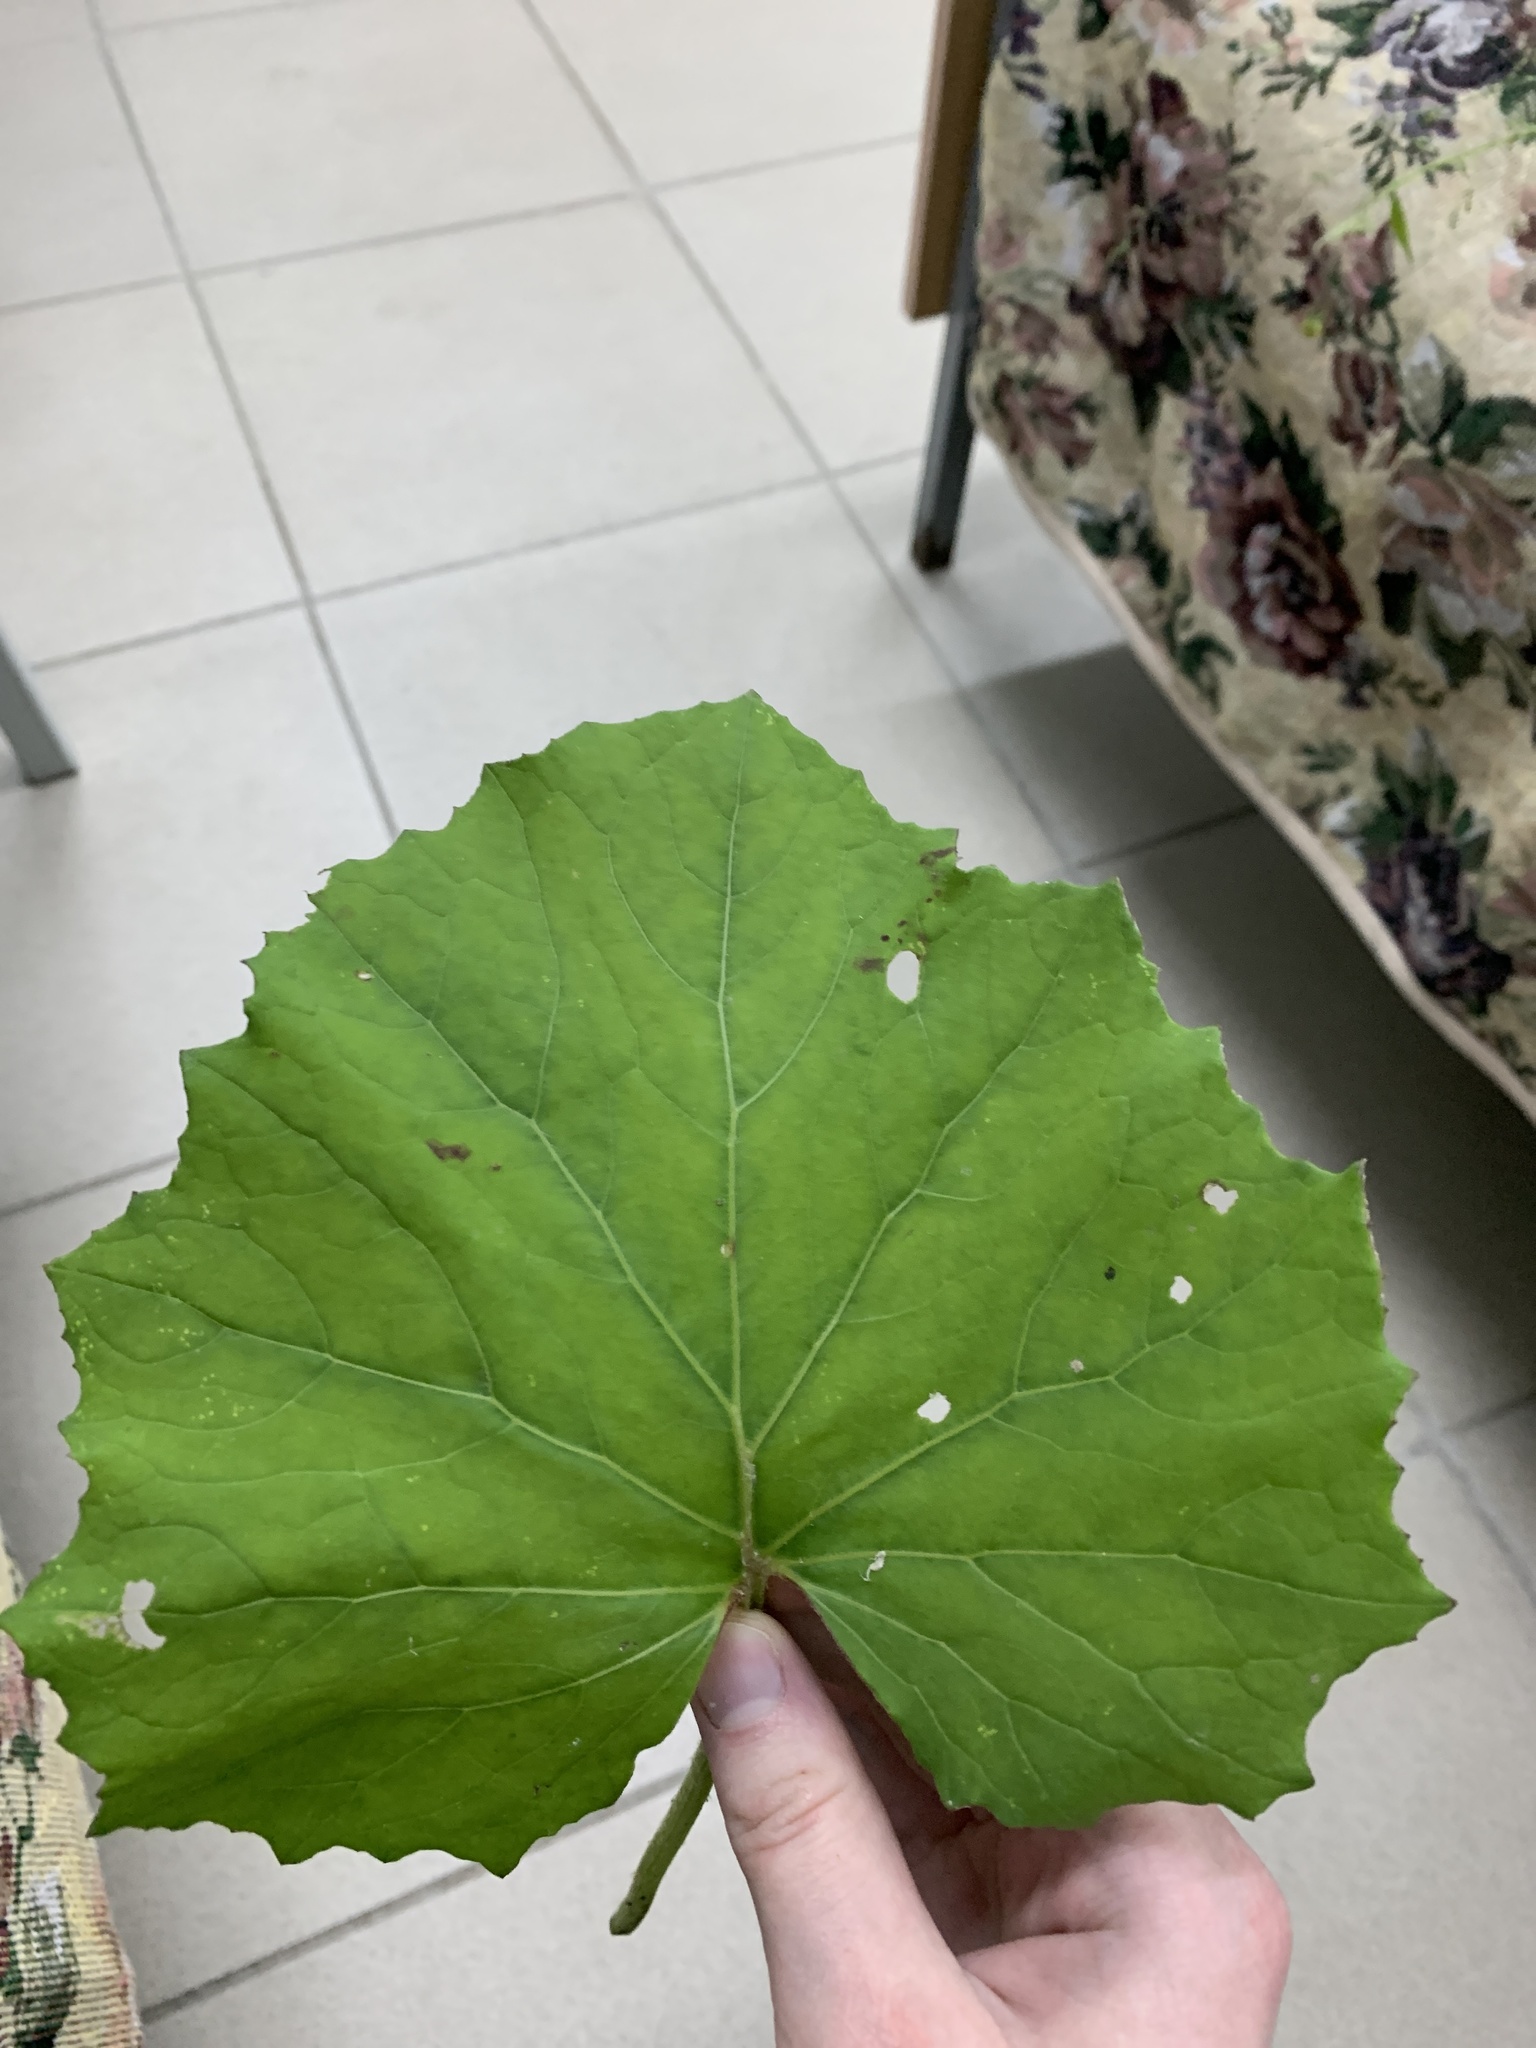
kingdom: Plantae
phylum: Tracheophyta
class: Magnoliopsida
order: Asterales
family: Asteraceae
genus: Tussilago
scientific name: Tussilago farfara
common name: Coltsfoot
